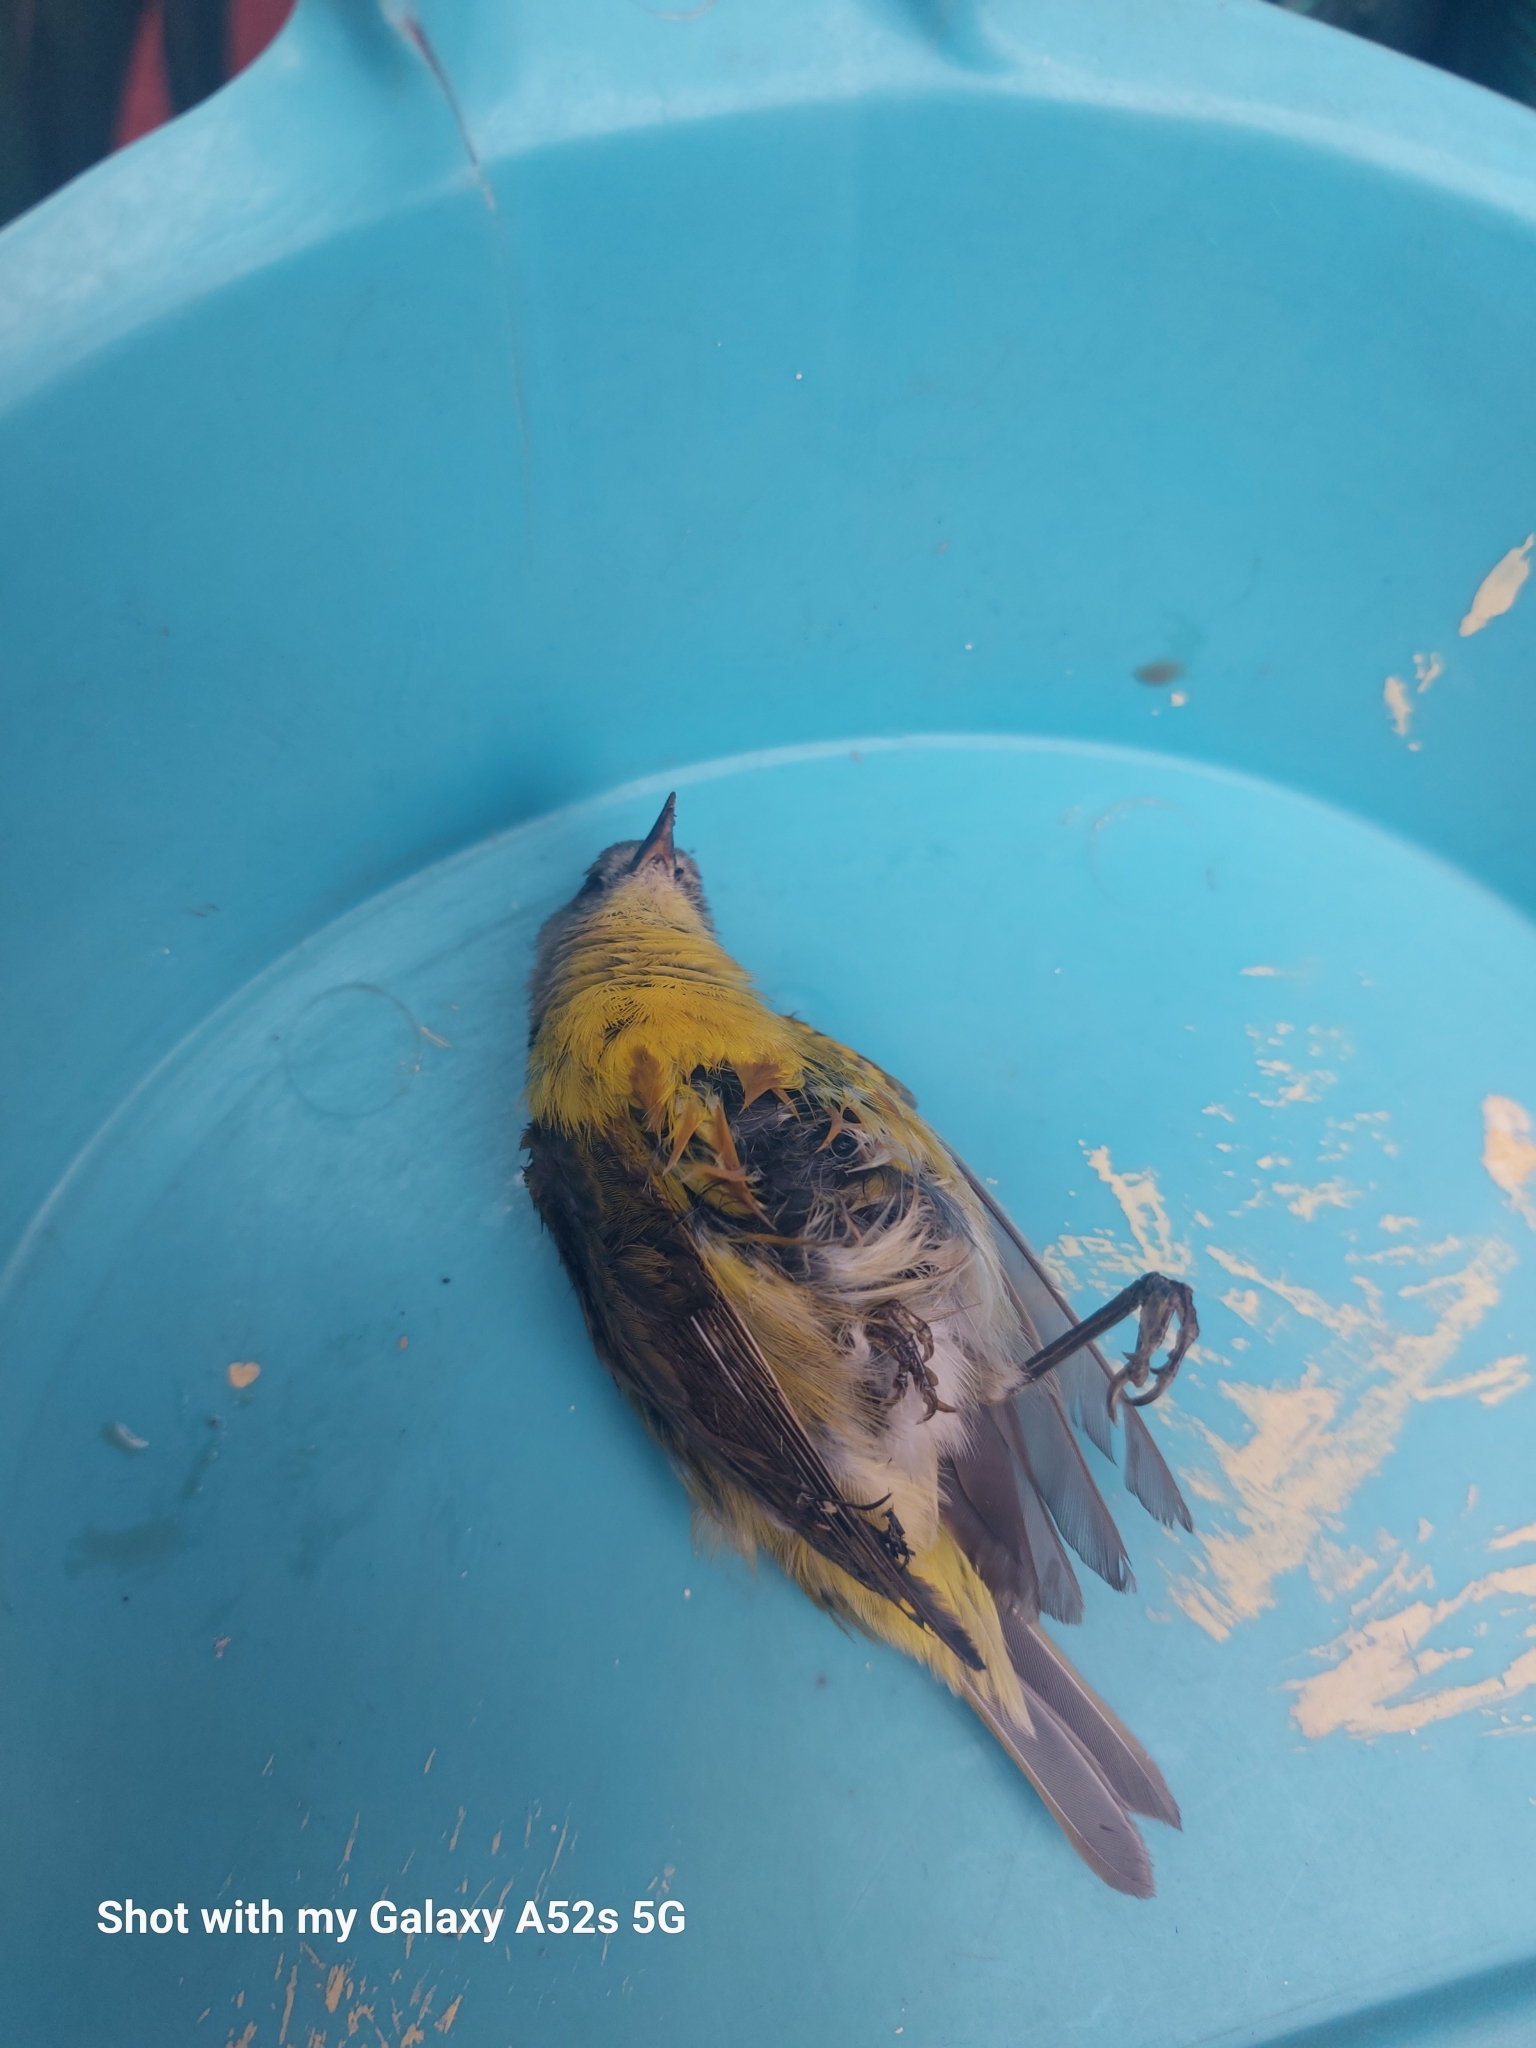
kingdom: Animalia
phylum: Chordata
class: Aves
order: Passeriformes
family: Parulidae
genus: Leiothlypis
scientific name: Leiothlypis ruficapilla
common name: Nashville warbler
